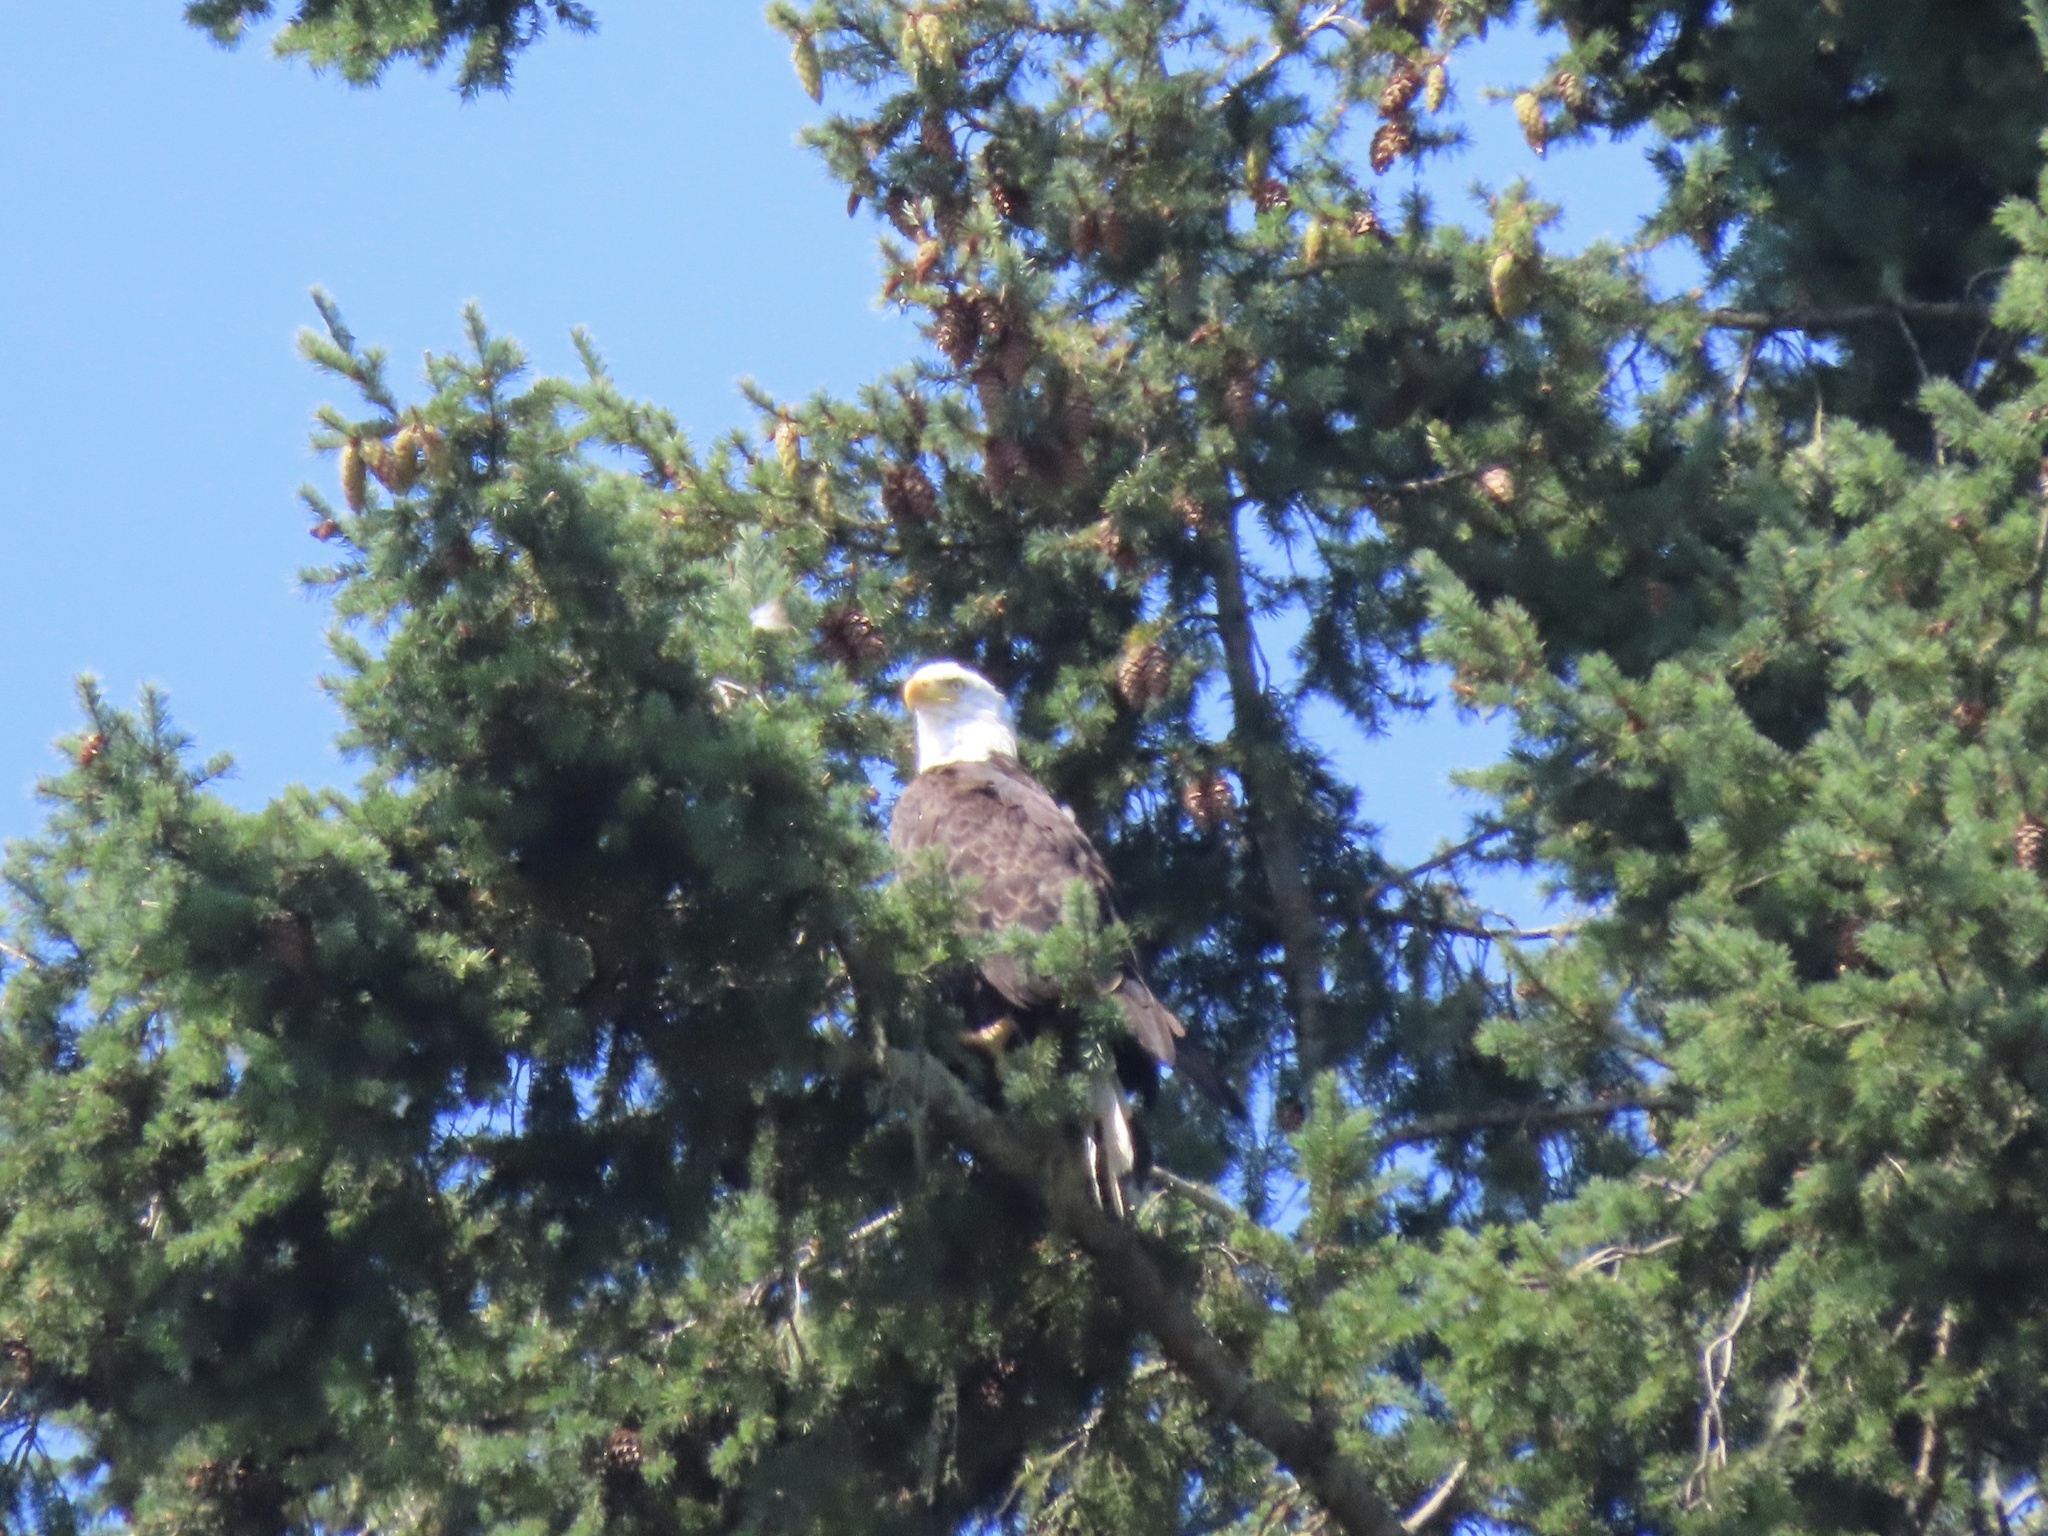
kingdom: Animalia
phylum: Chordata
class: Aves
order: Accipitriformes
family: Accipitridae
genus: Haliaeetus
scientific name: Haliaeetus leucocephalus
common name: Bald eagle
